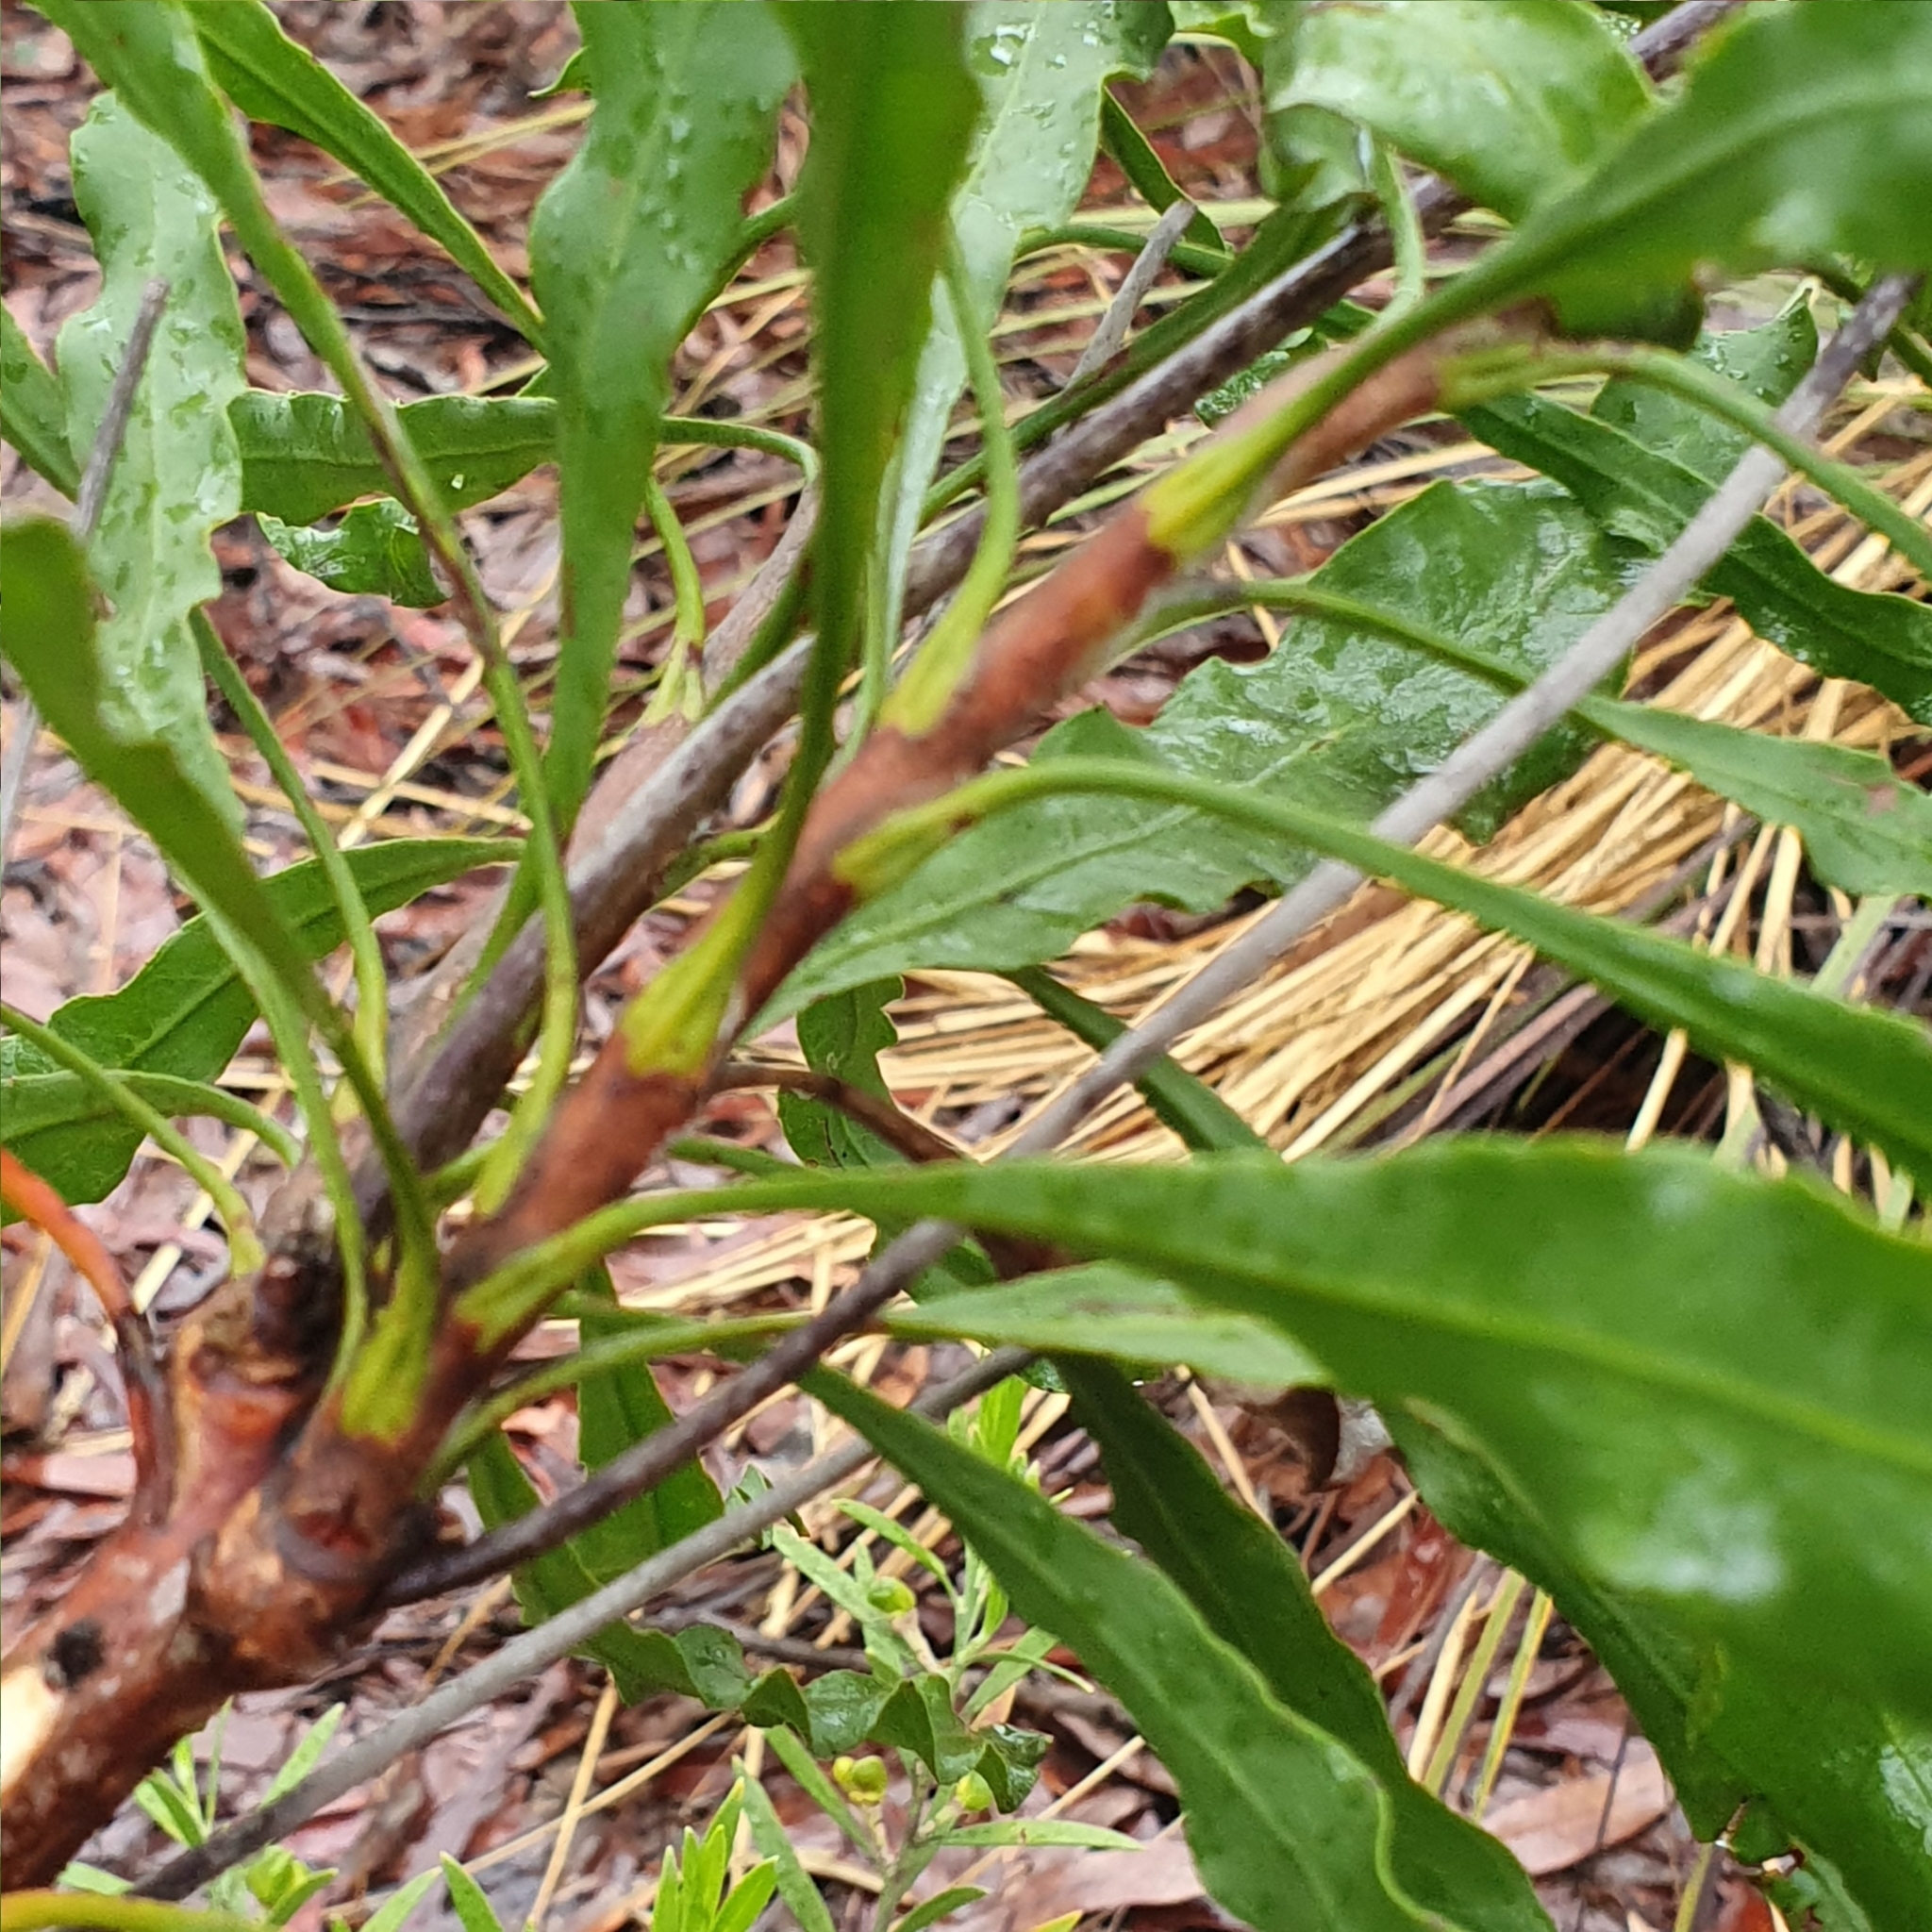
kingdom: Plantae
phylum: Tracheophyta
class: Magnoliopsida
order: Proteales
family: Proteaceae
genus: Conospermum
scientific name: Conospermum longifolium
